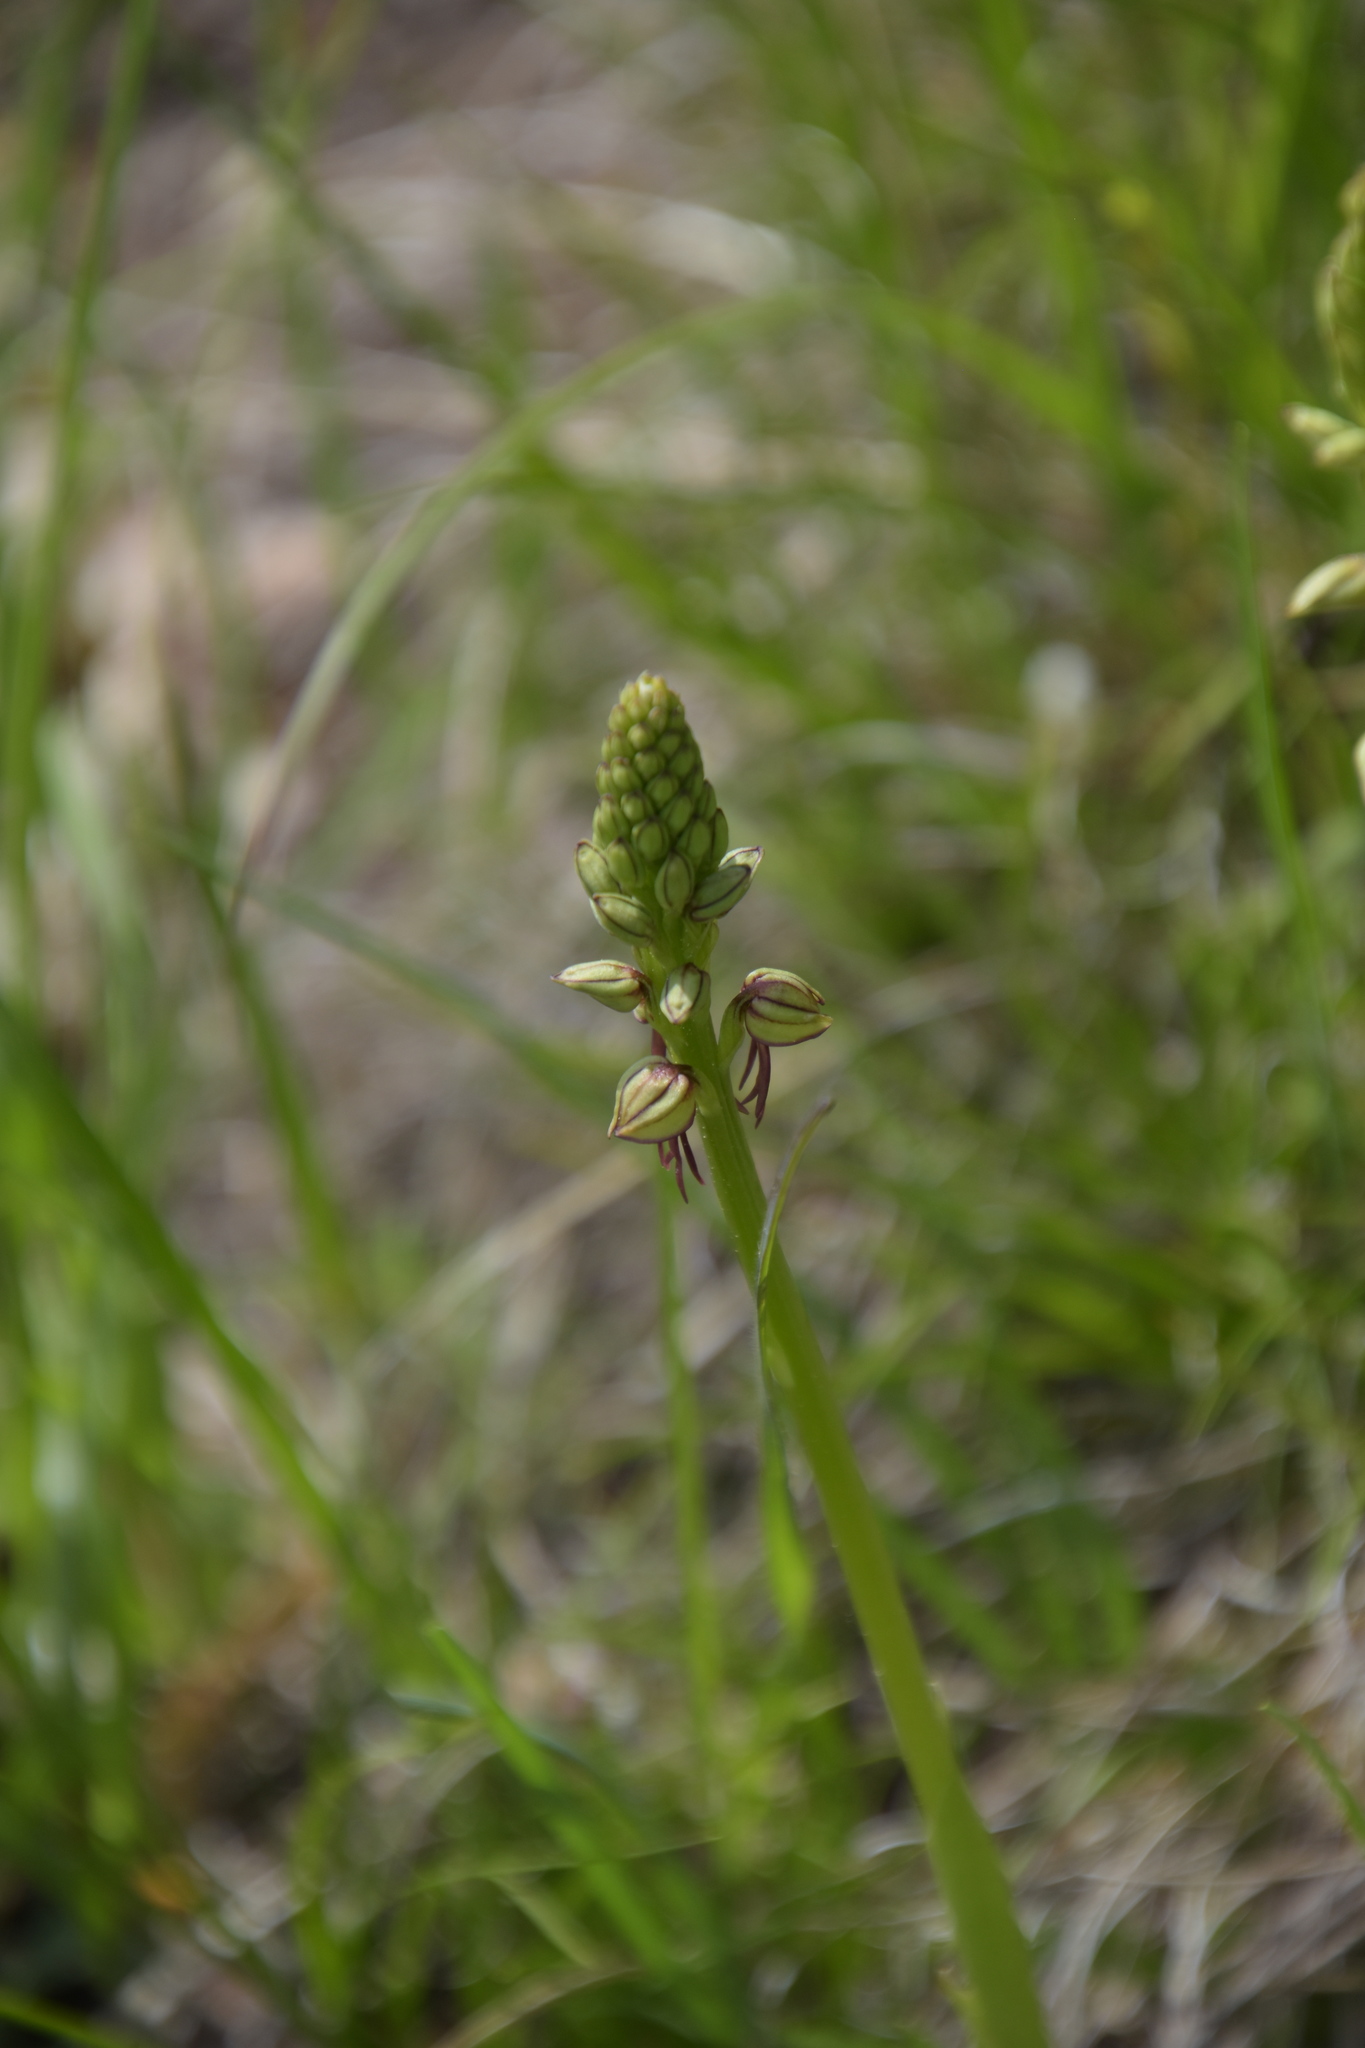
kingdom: Plantae
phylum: Tracheophyta
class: Liliopsida
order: Asparagales
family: Orchidaceae
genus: Orchis
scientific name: Orchis anthropophora
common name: Man orchid
